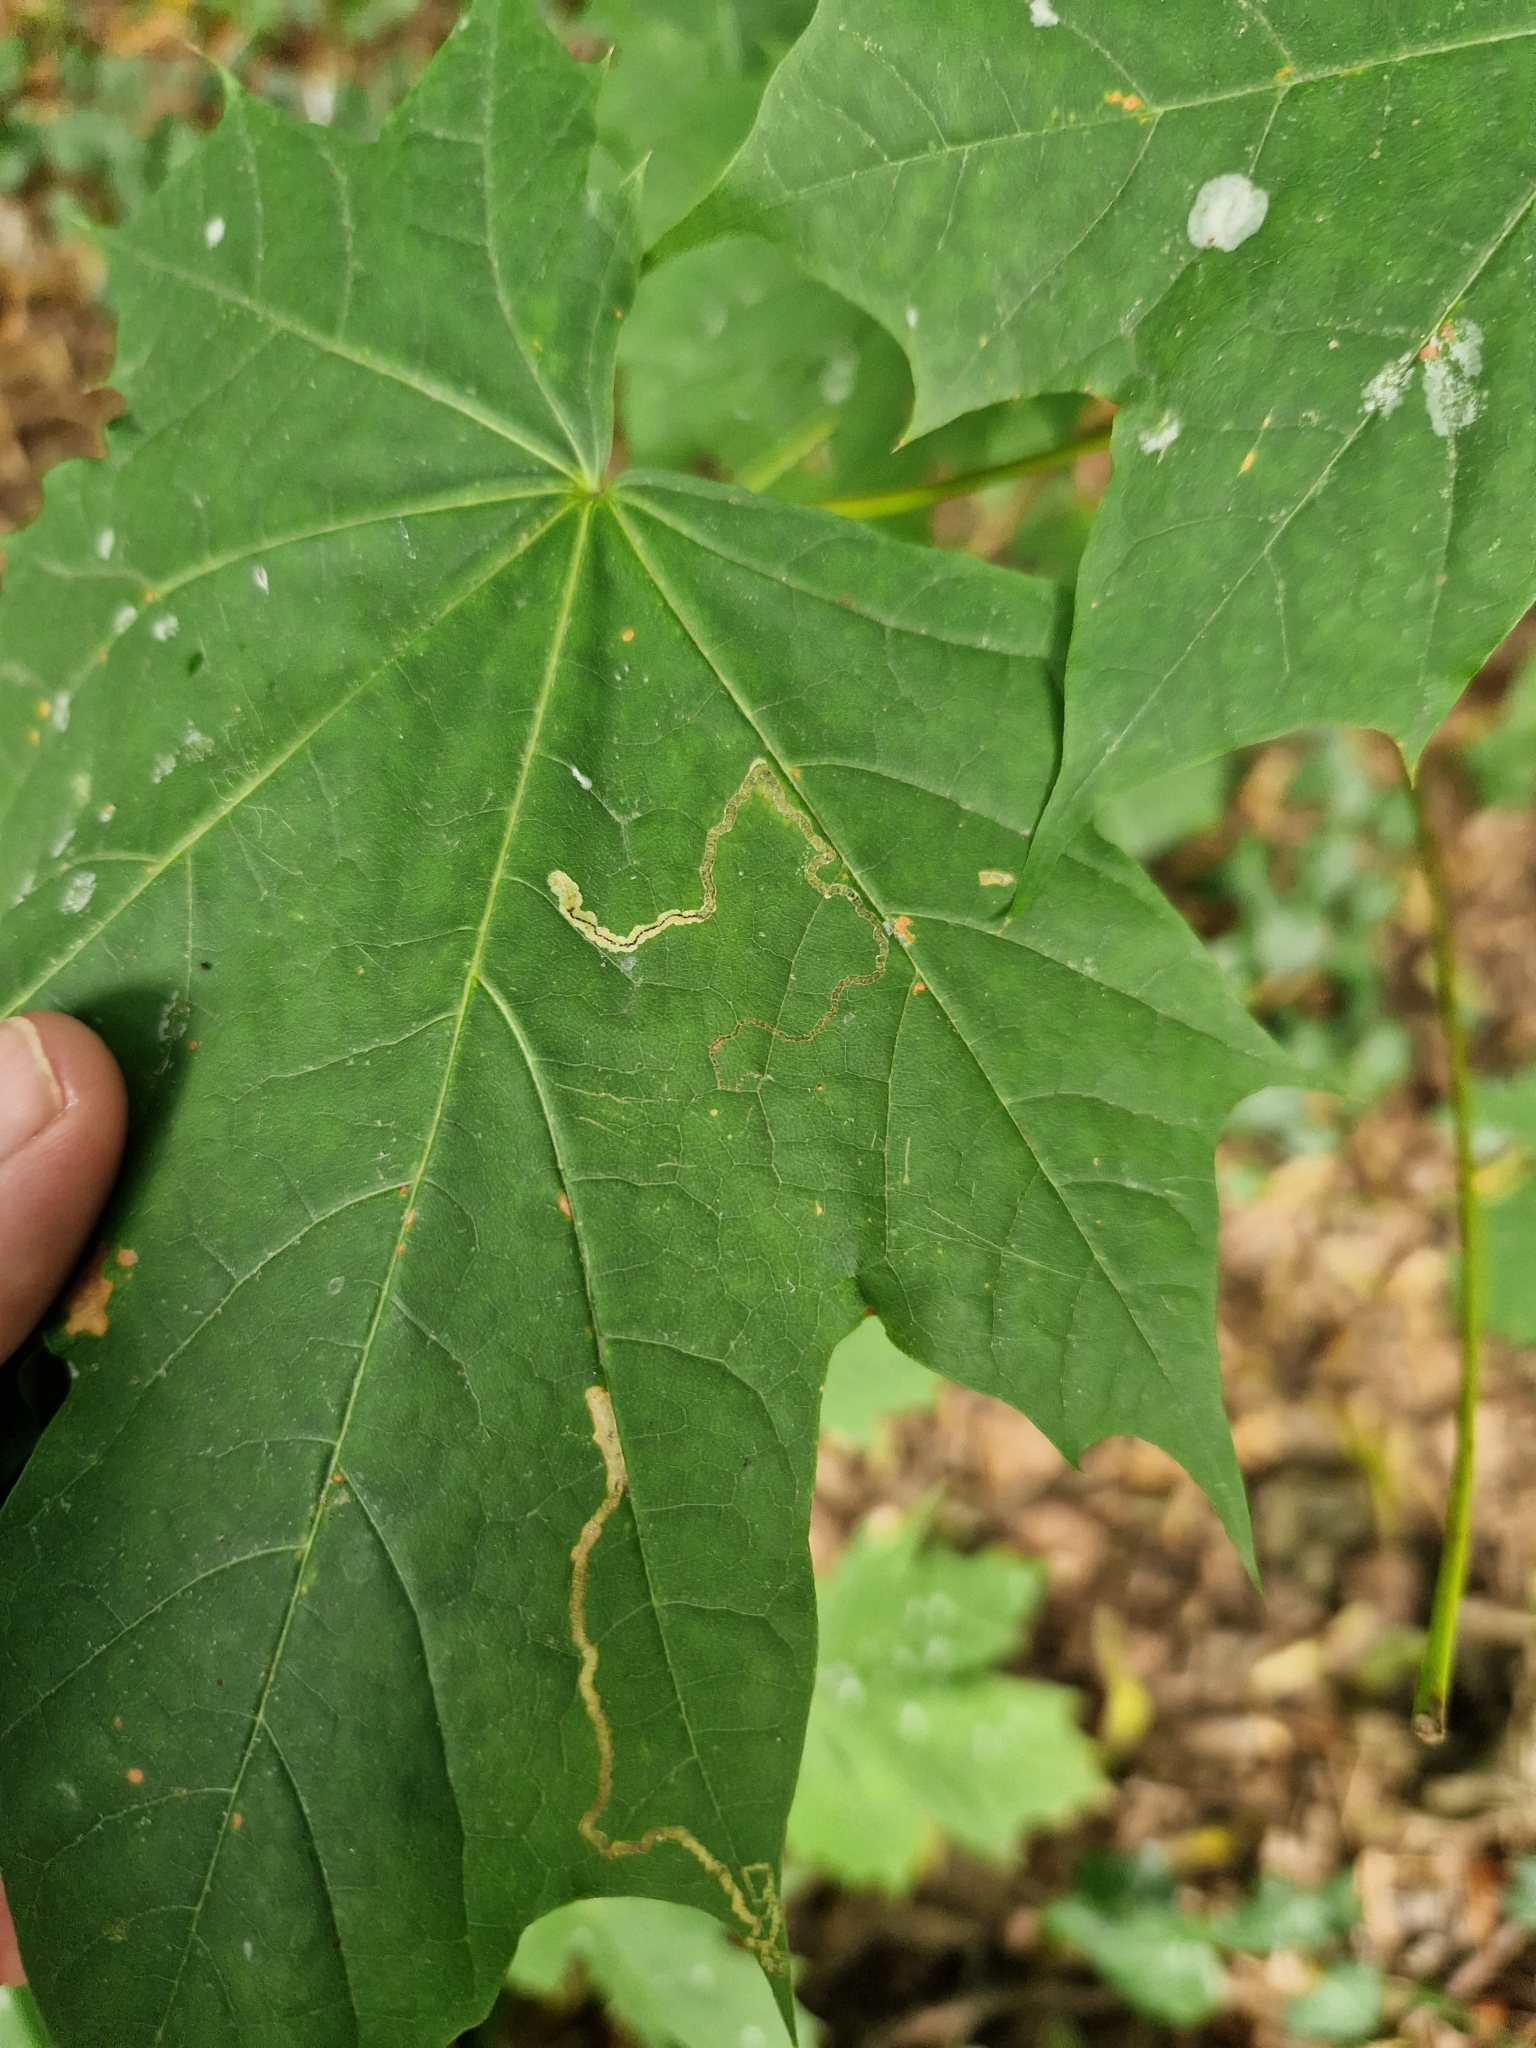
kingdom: Animalia
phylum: Arthropoda
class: Insecta
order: Lepidoptera
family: Nepticulidae
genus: Stigmella
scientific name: Stigmella aceris
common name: Scarce maple pigmy
